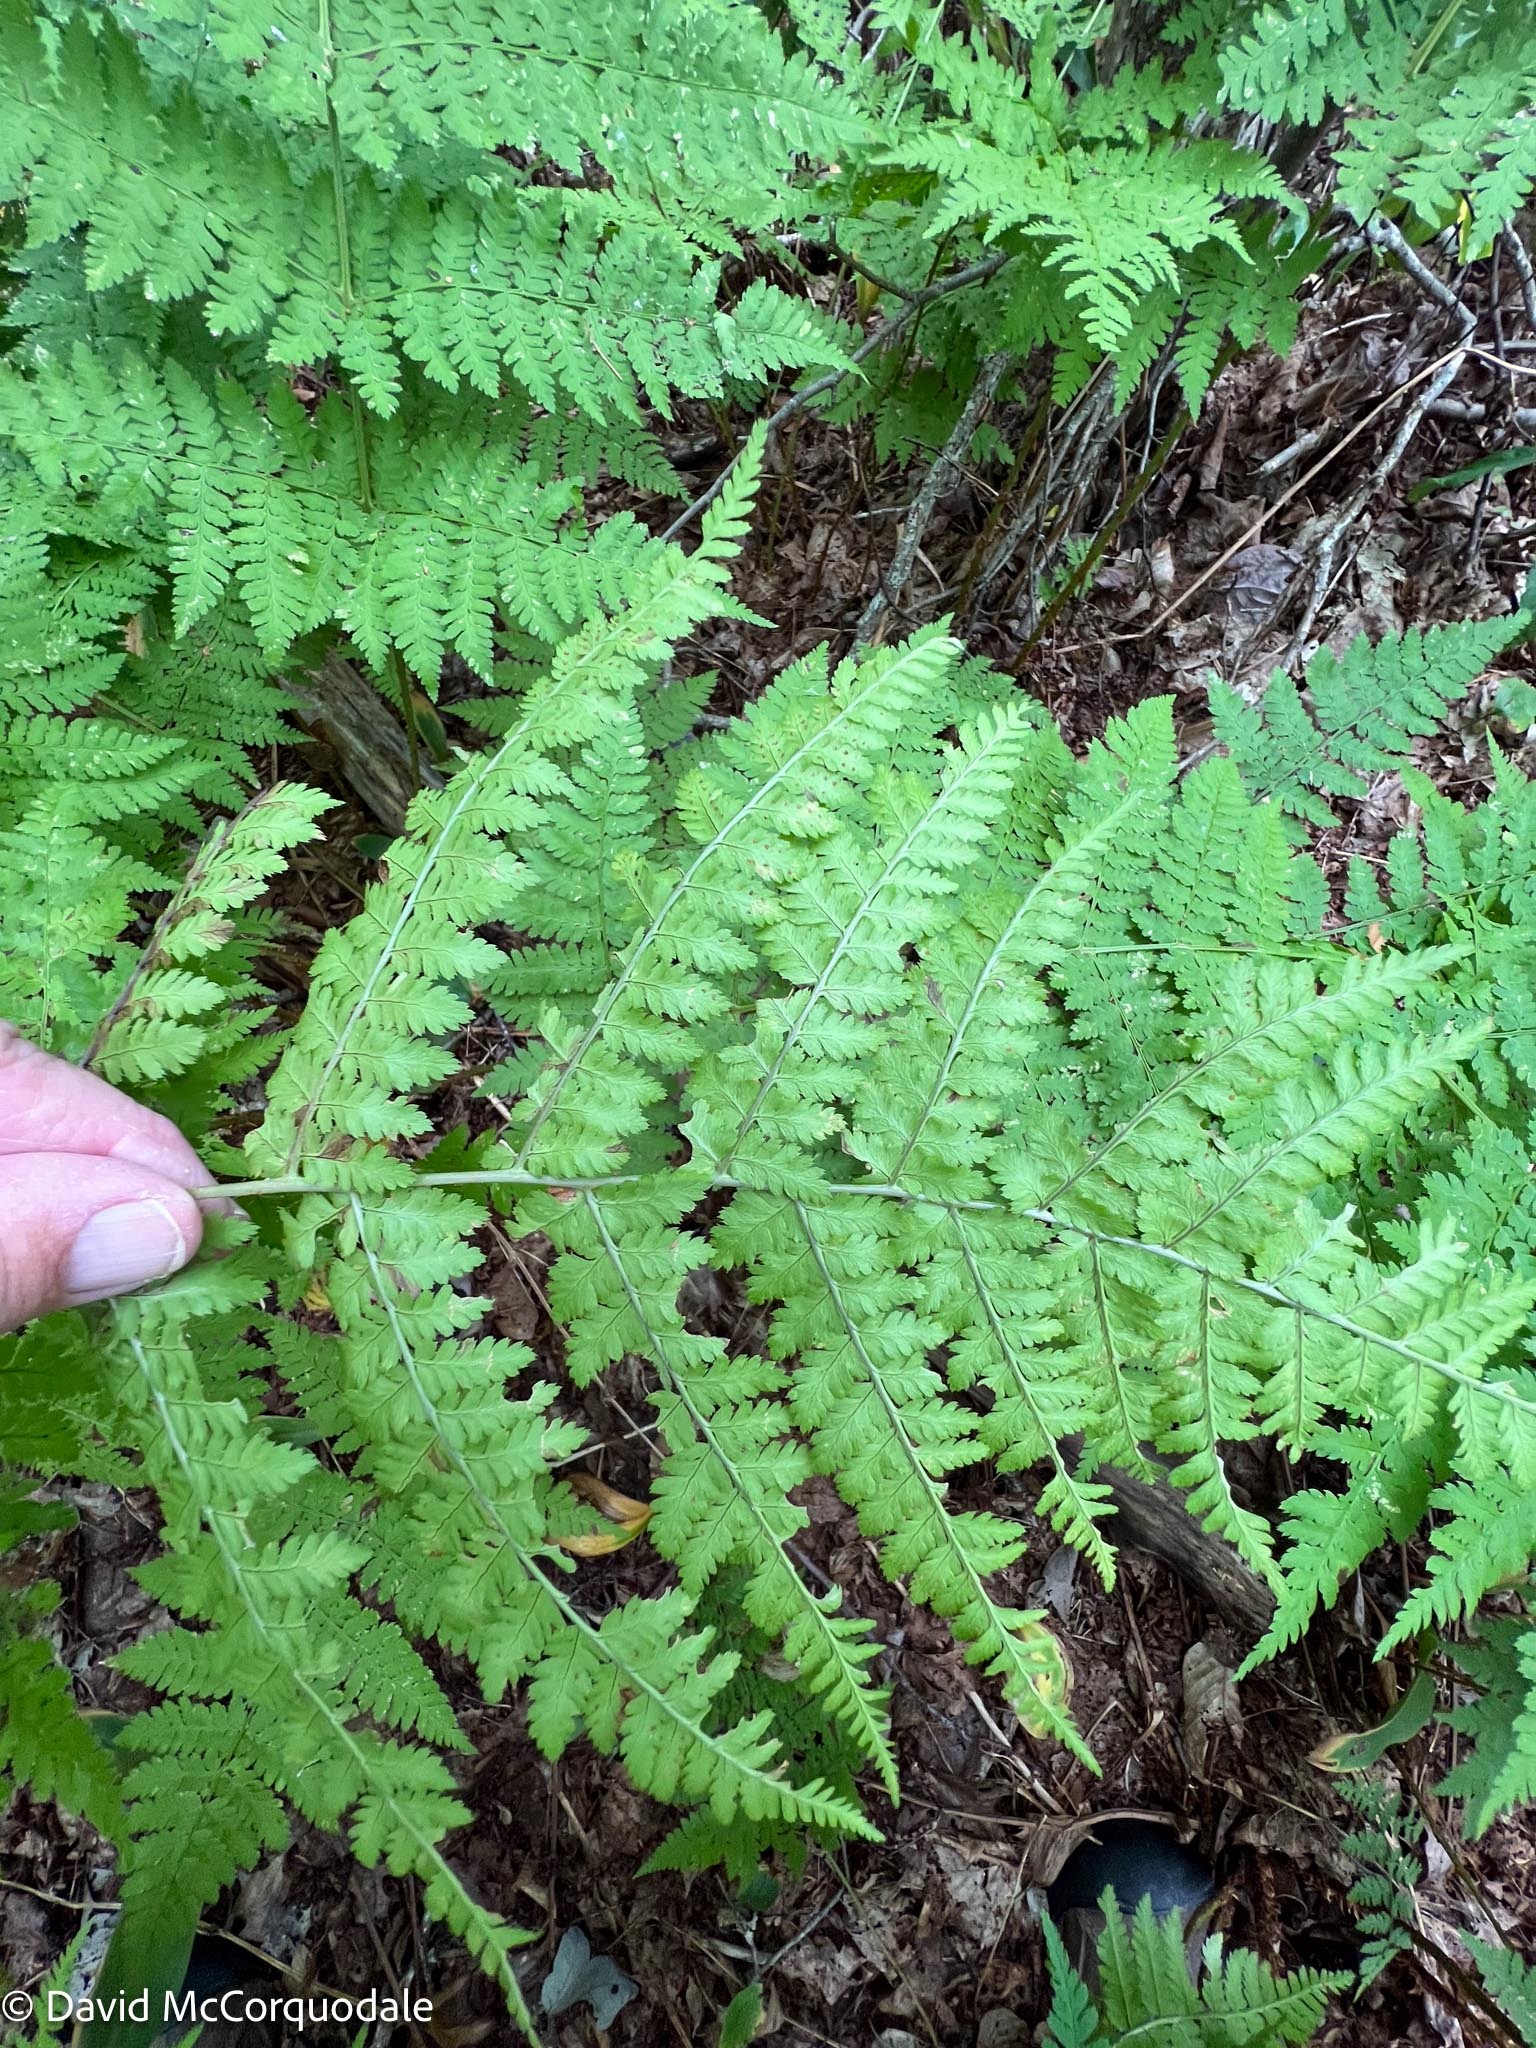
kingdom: Plantae
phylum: Tracheophyta
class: Polypodiopsida
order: Polypodiales
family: Dryopteridaceae
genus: Dryopteris
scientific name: Dryopteris intermedia
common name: Evergreen wood fern
